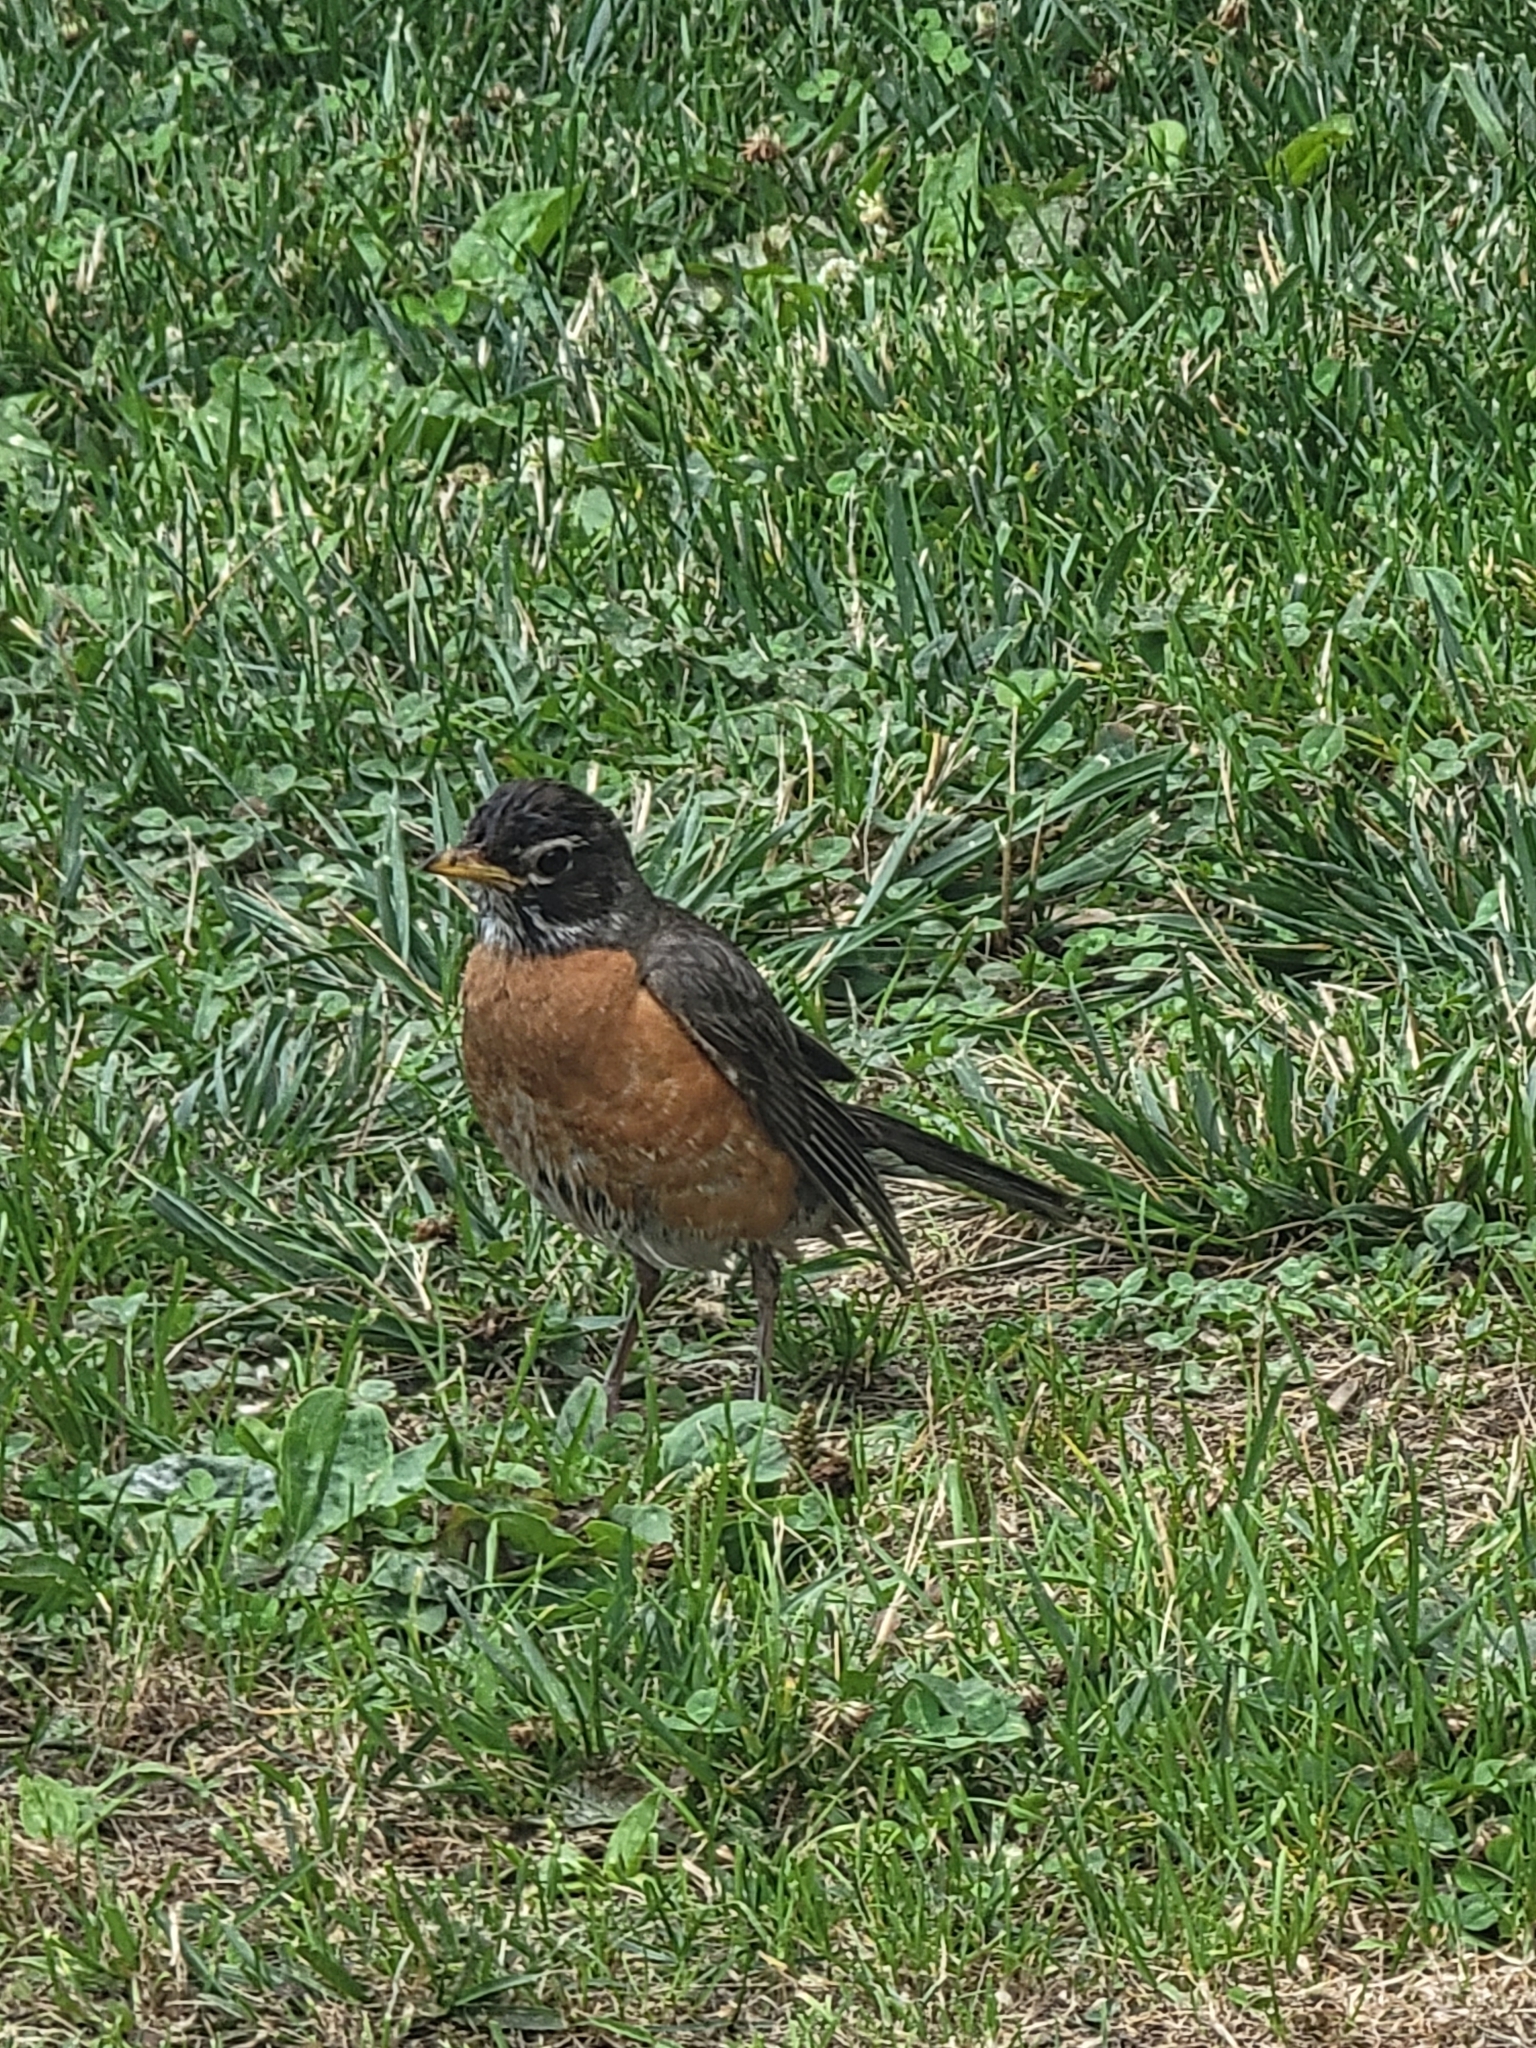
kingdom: Animalia
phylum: Chordata
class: Aves
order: Passeriformes
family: Turdidae
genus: Turdus
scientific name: Turdus migratorius
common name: American robin
